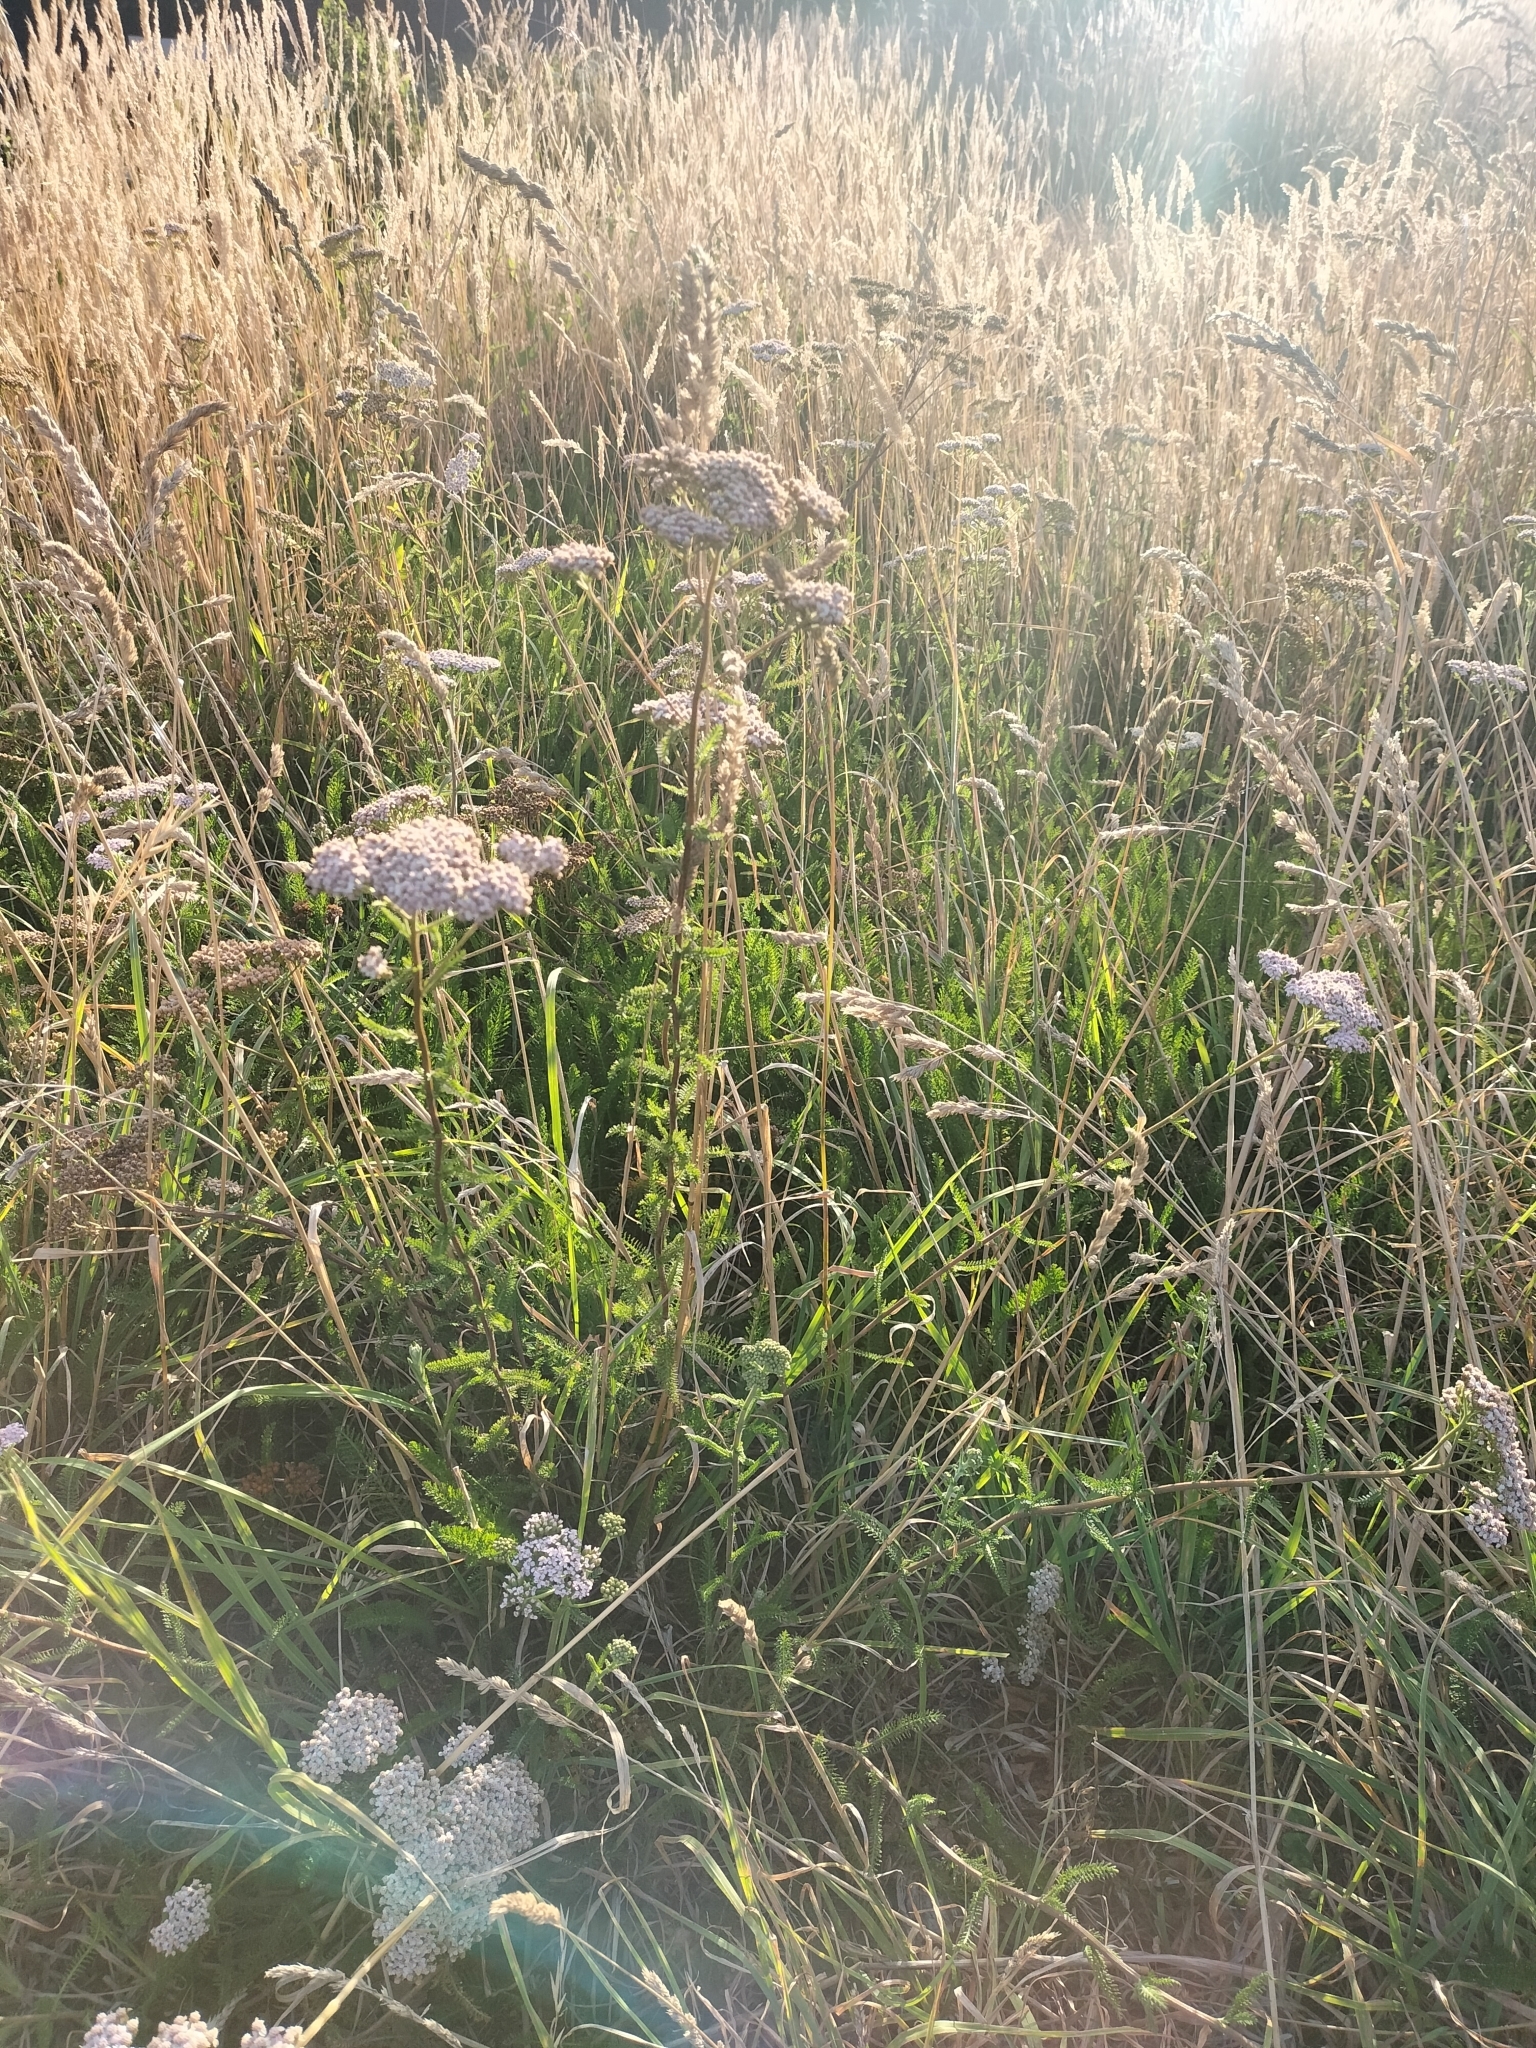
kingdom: Plantae
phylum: Tracheophyta
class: Magnoliopsida
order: Asterales
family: Asteraceae
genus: Achillea
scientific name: Achillea millefolium
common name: Yarrow
